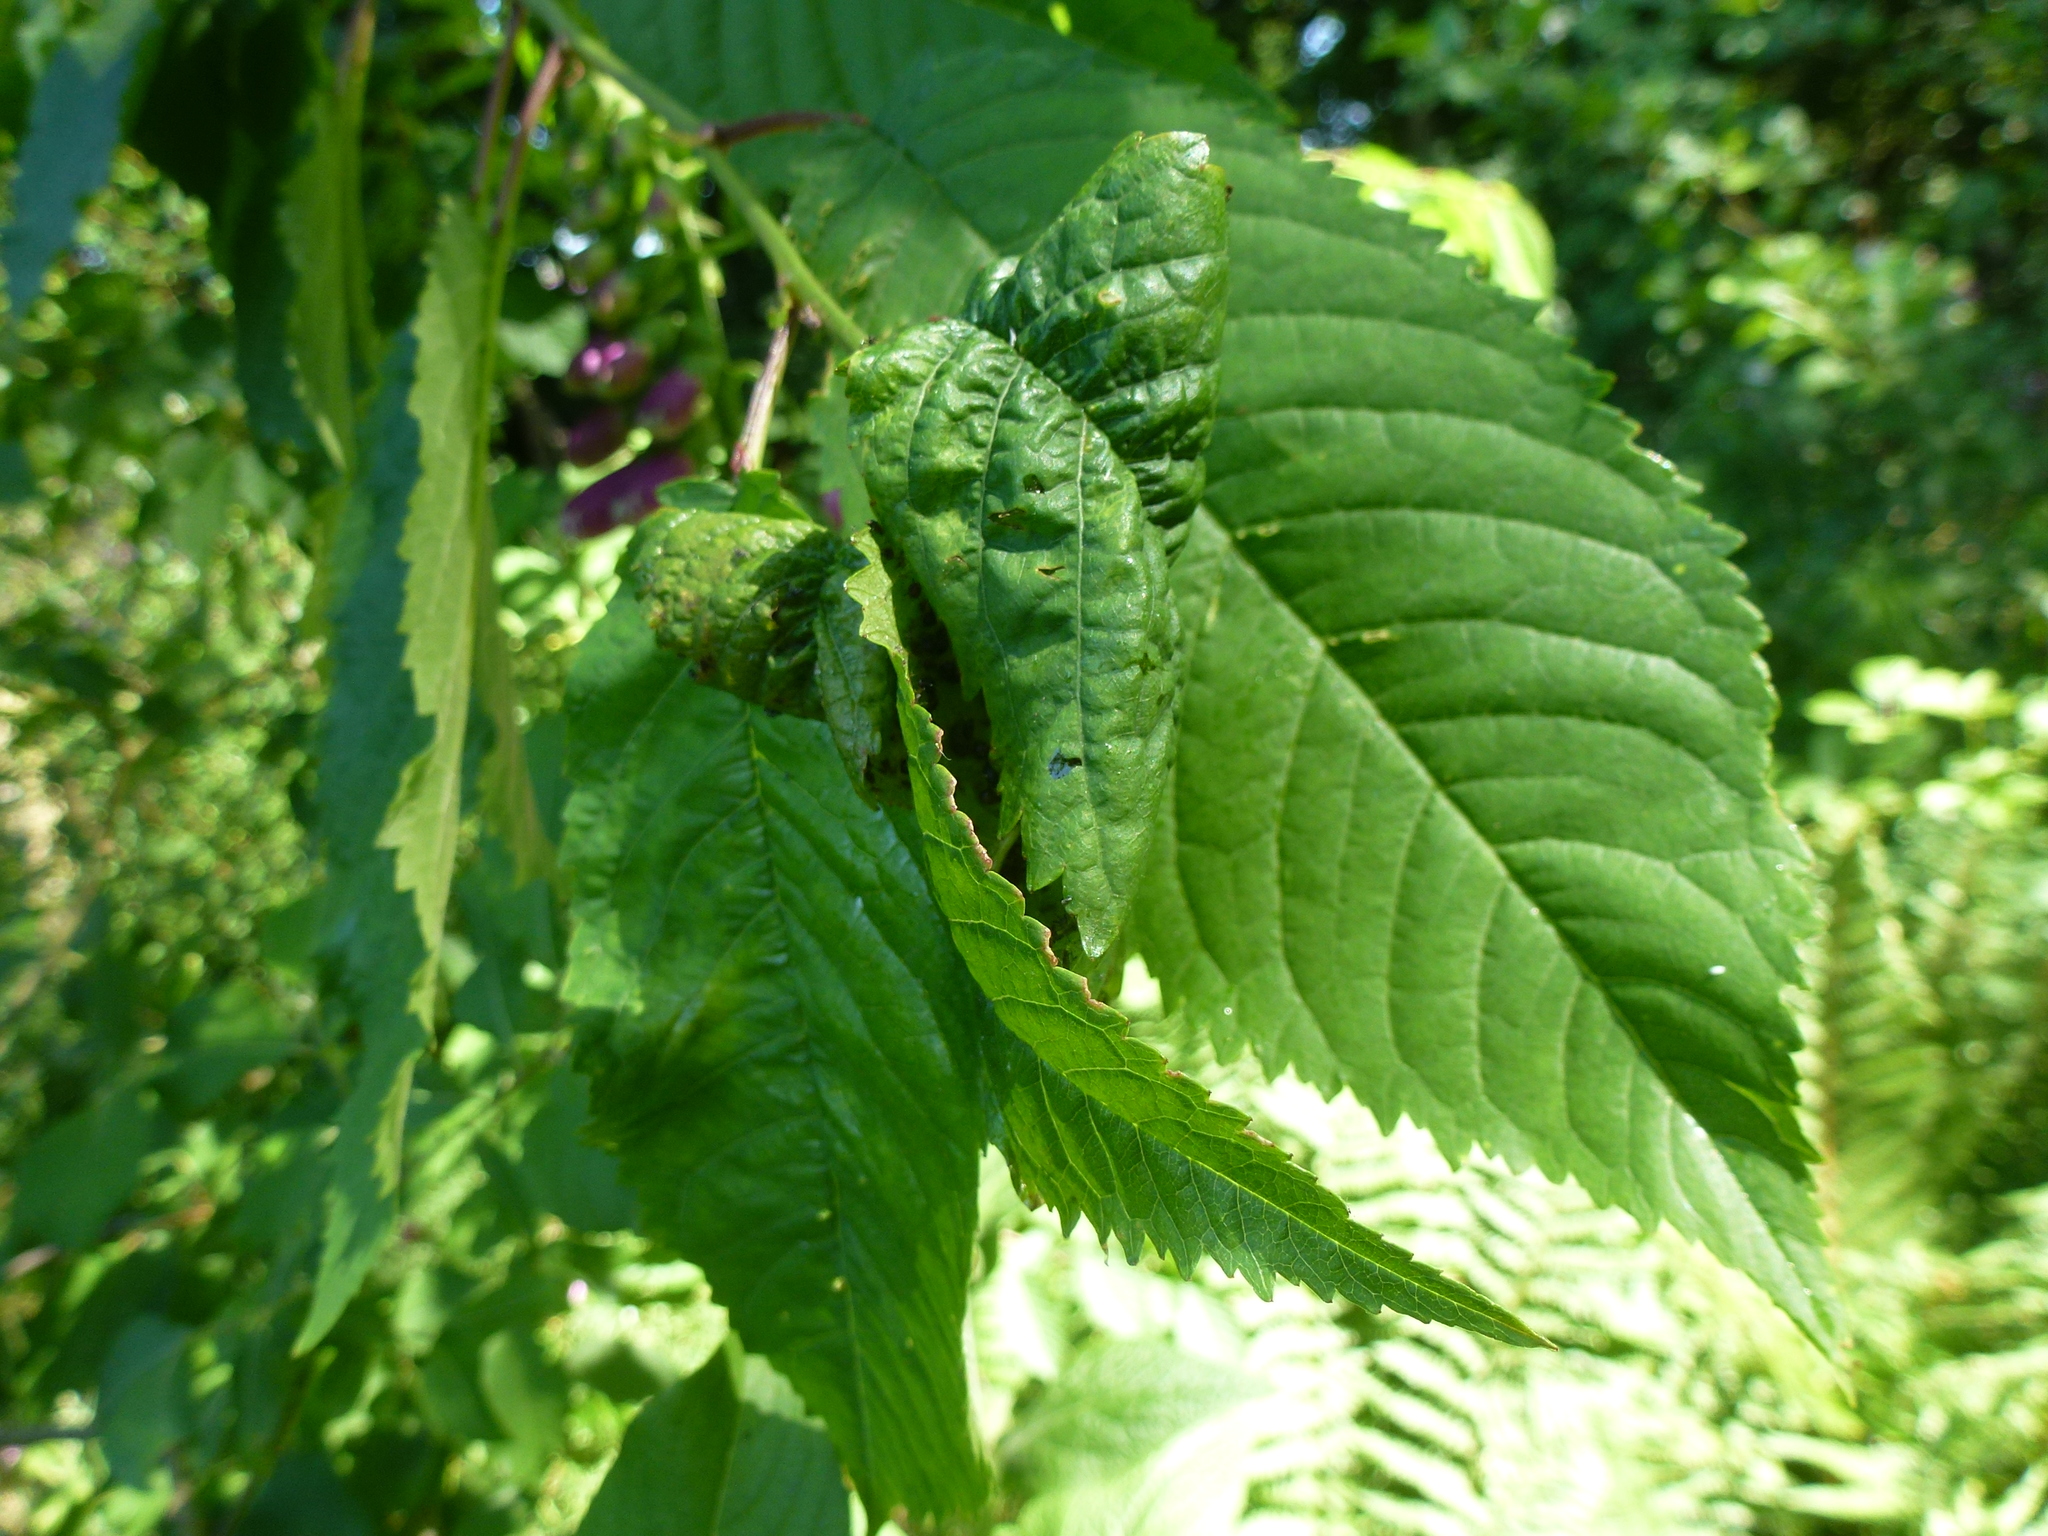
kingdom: Animalia
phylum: Arthropoda
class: Insecta
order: Hemiptera
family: Aphididae
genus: Myzus
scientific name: Myzus cerasi
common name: Black cherry aphid
